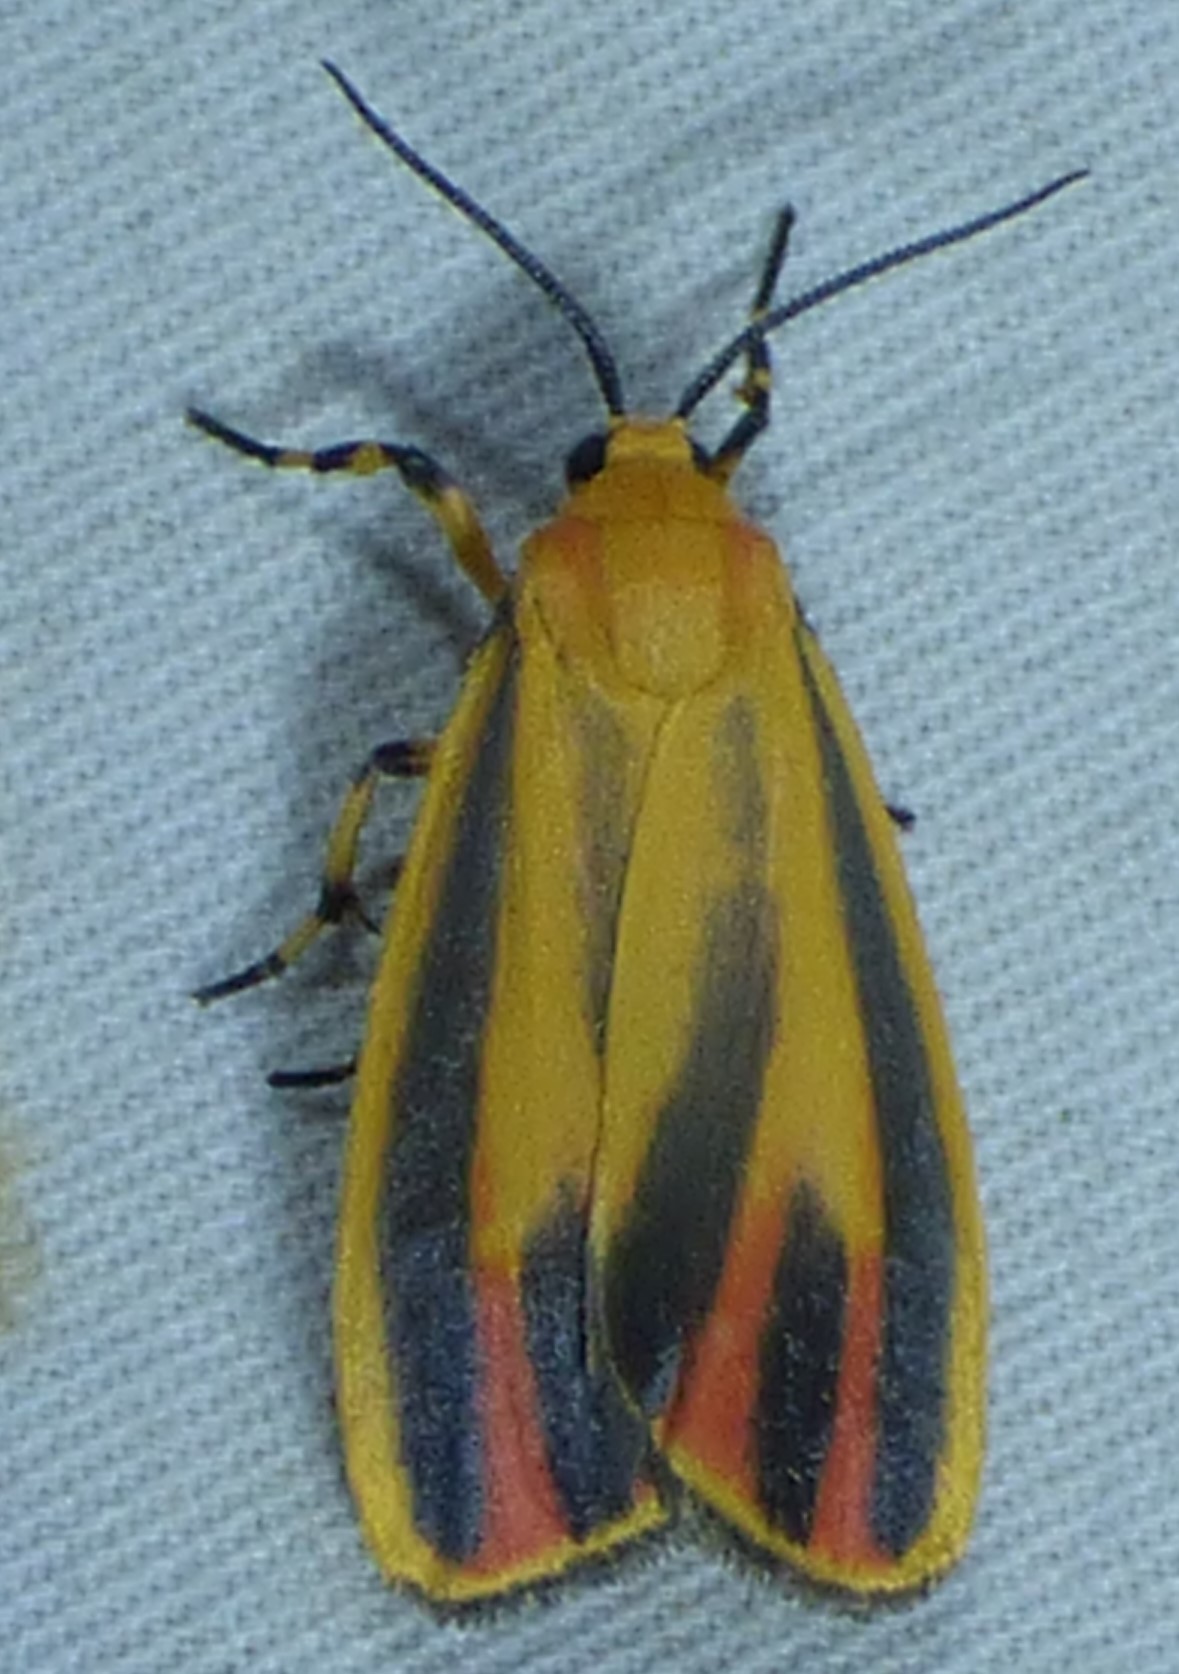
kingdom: Animalia
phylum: Arthropoda
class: Insecta
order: Lepidoptera
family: Erebidae
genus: Hypoprepia
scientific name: Hypoprepia fucosa
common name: Painted lichen moth
